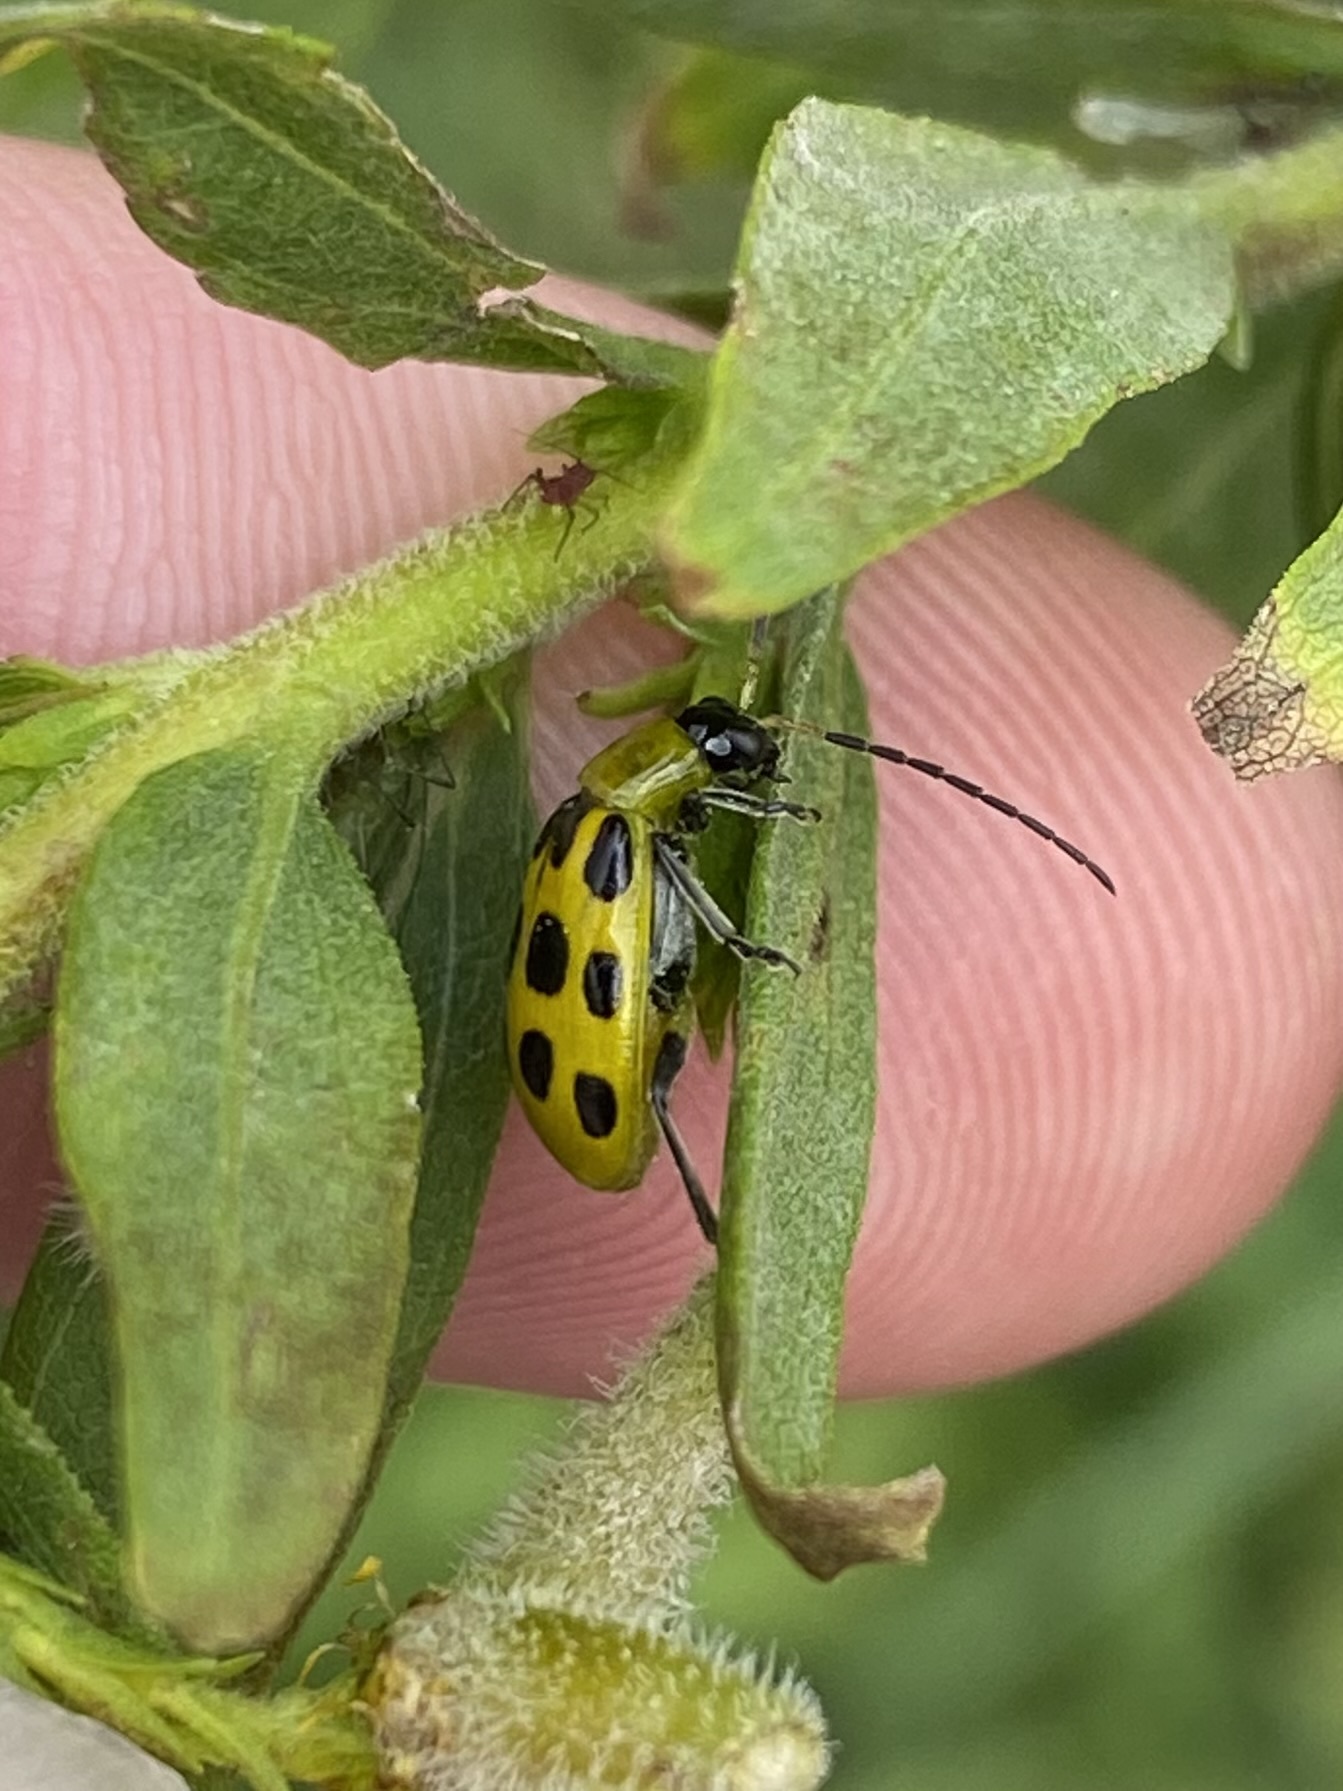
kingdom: Animalia
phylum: Arthropoda
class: Insecta
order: Coleoptera
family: Chrysomelidae
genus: Diabrotica
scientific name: Diabrotica undecimpunctata
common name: Spotted cucumber beetle
